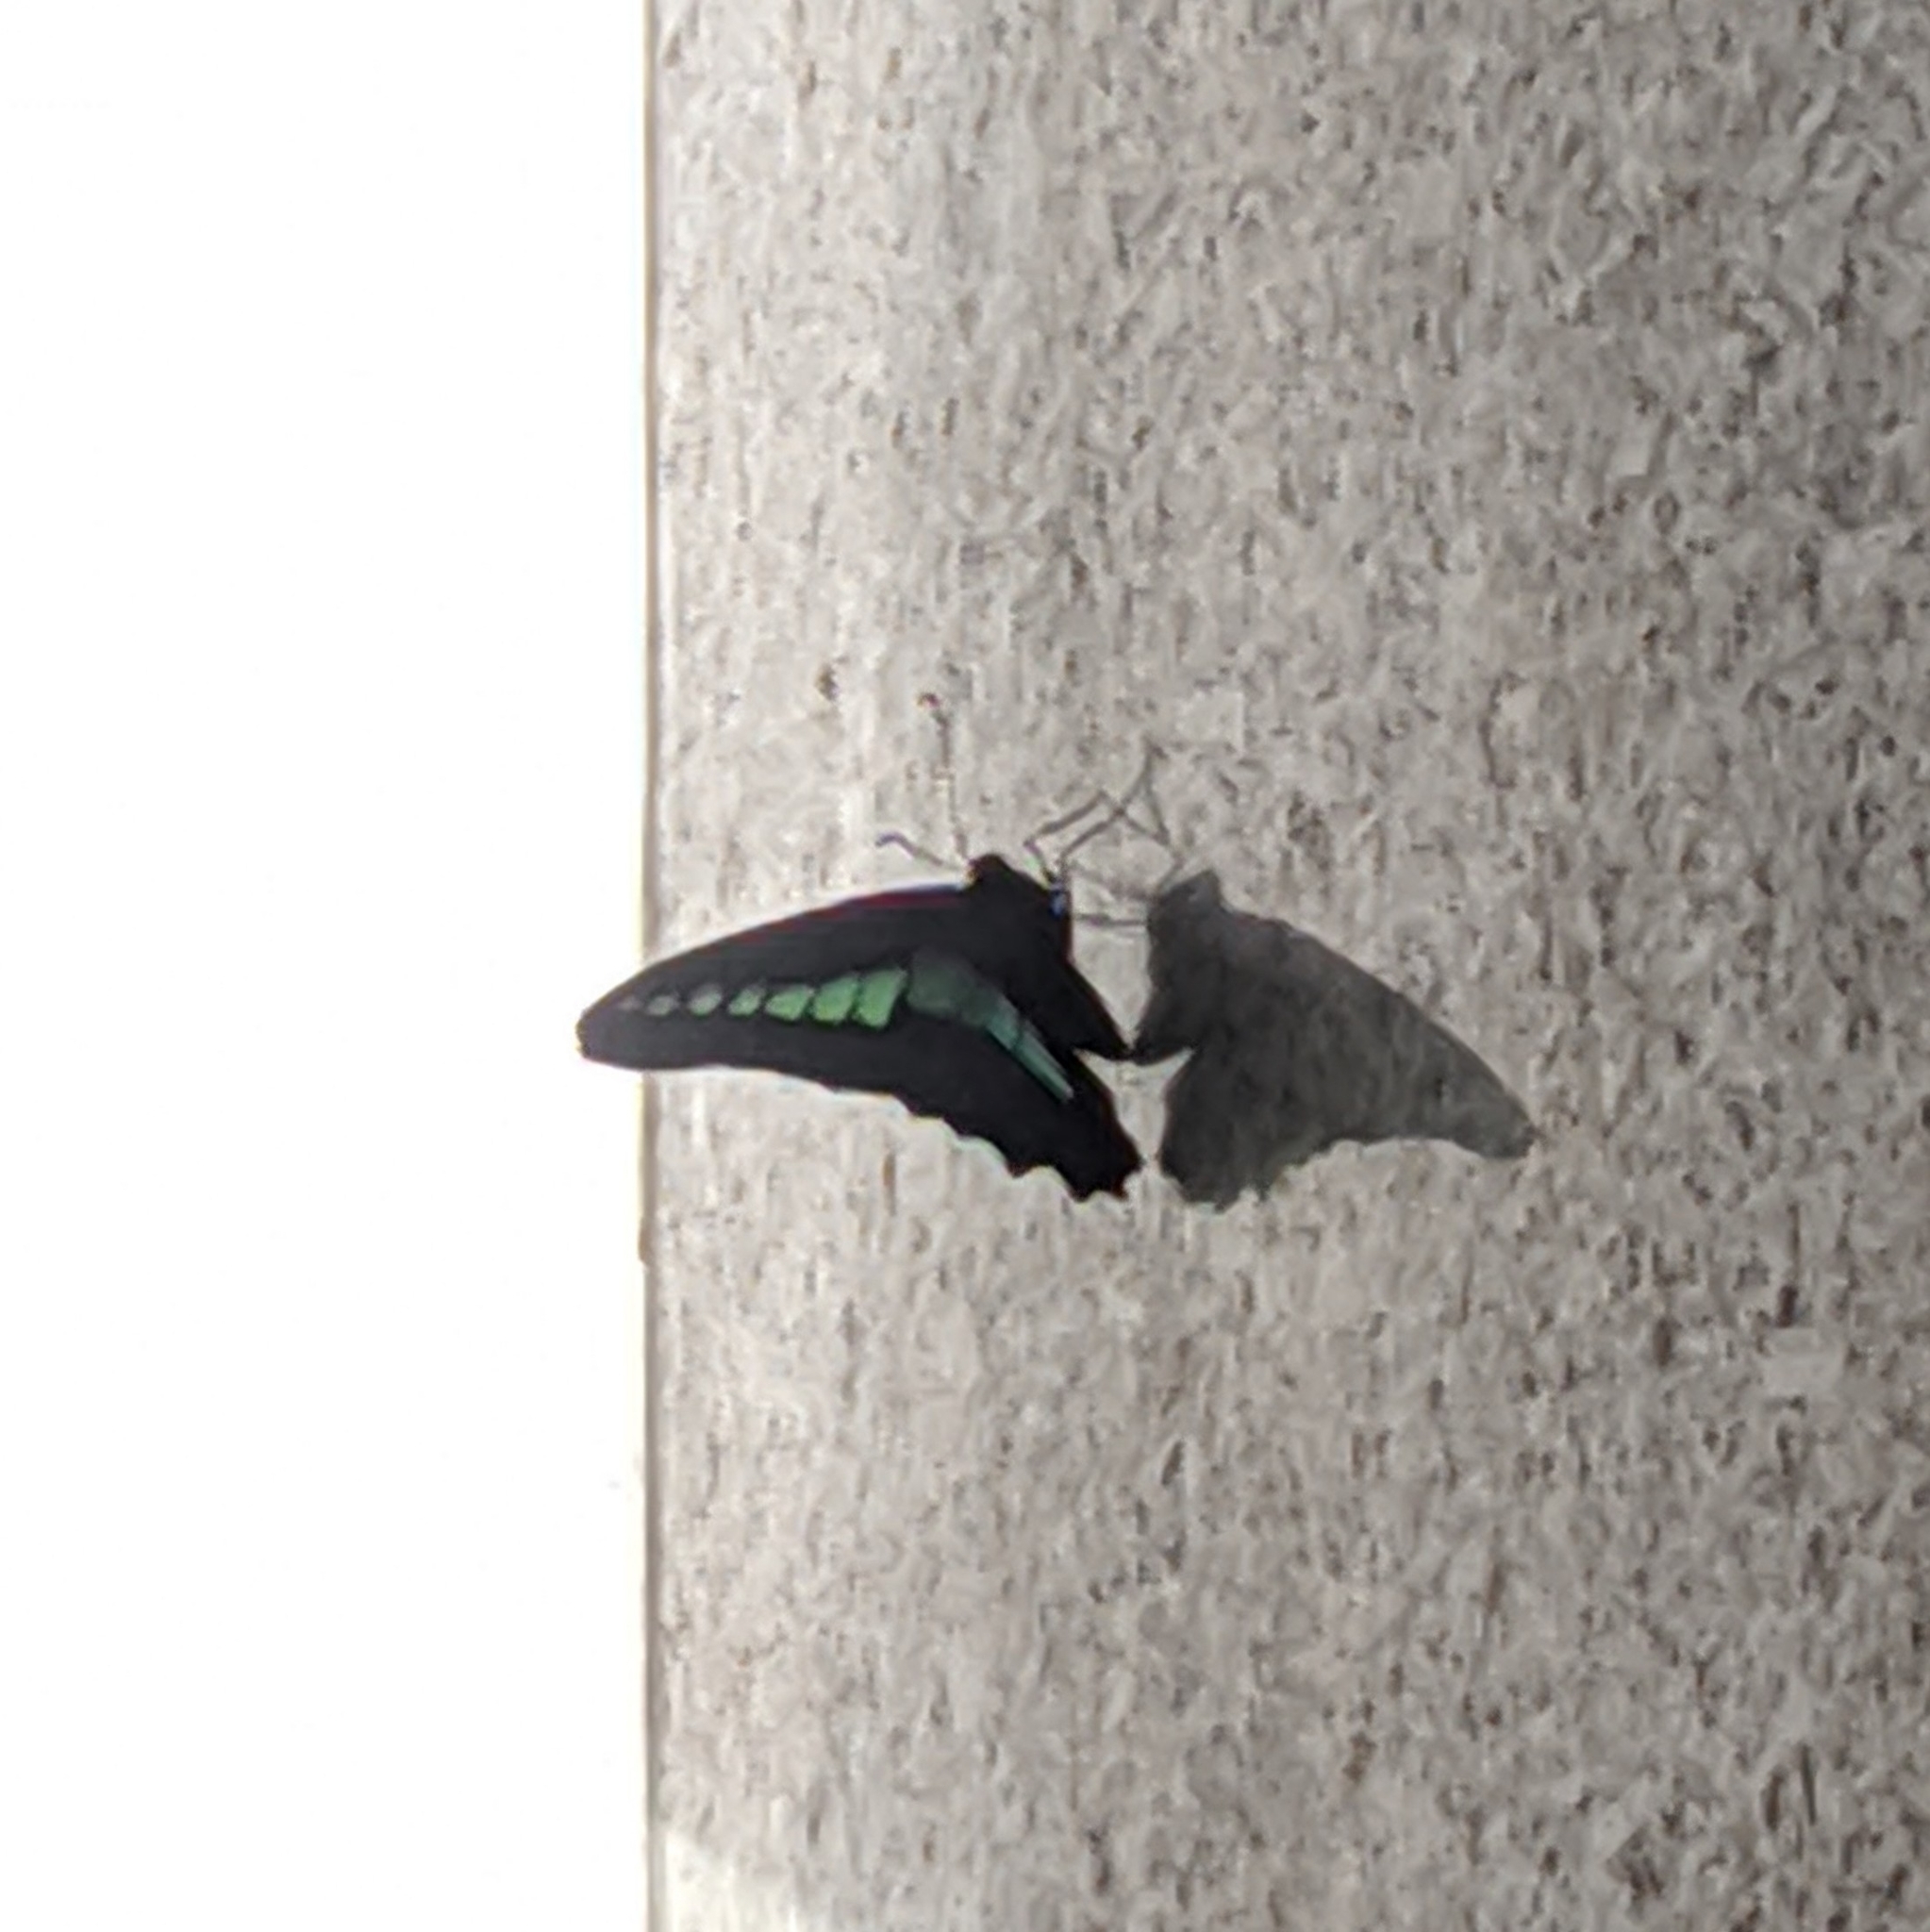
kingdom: Fungi
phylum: Ascomycota
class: Sordariomycetes
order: Microascales
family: Microascaceae
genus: Graphium
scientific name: Graphium sarpedon
